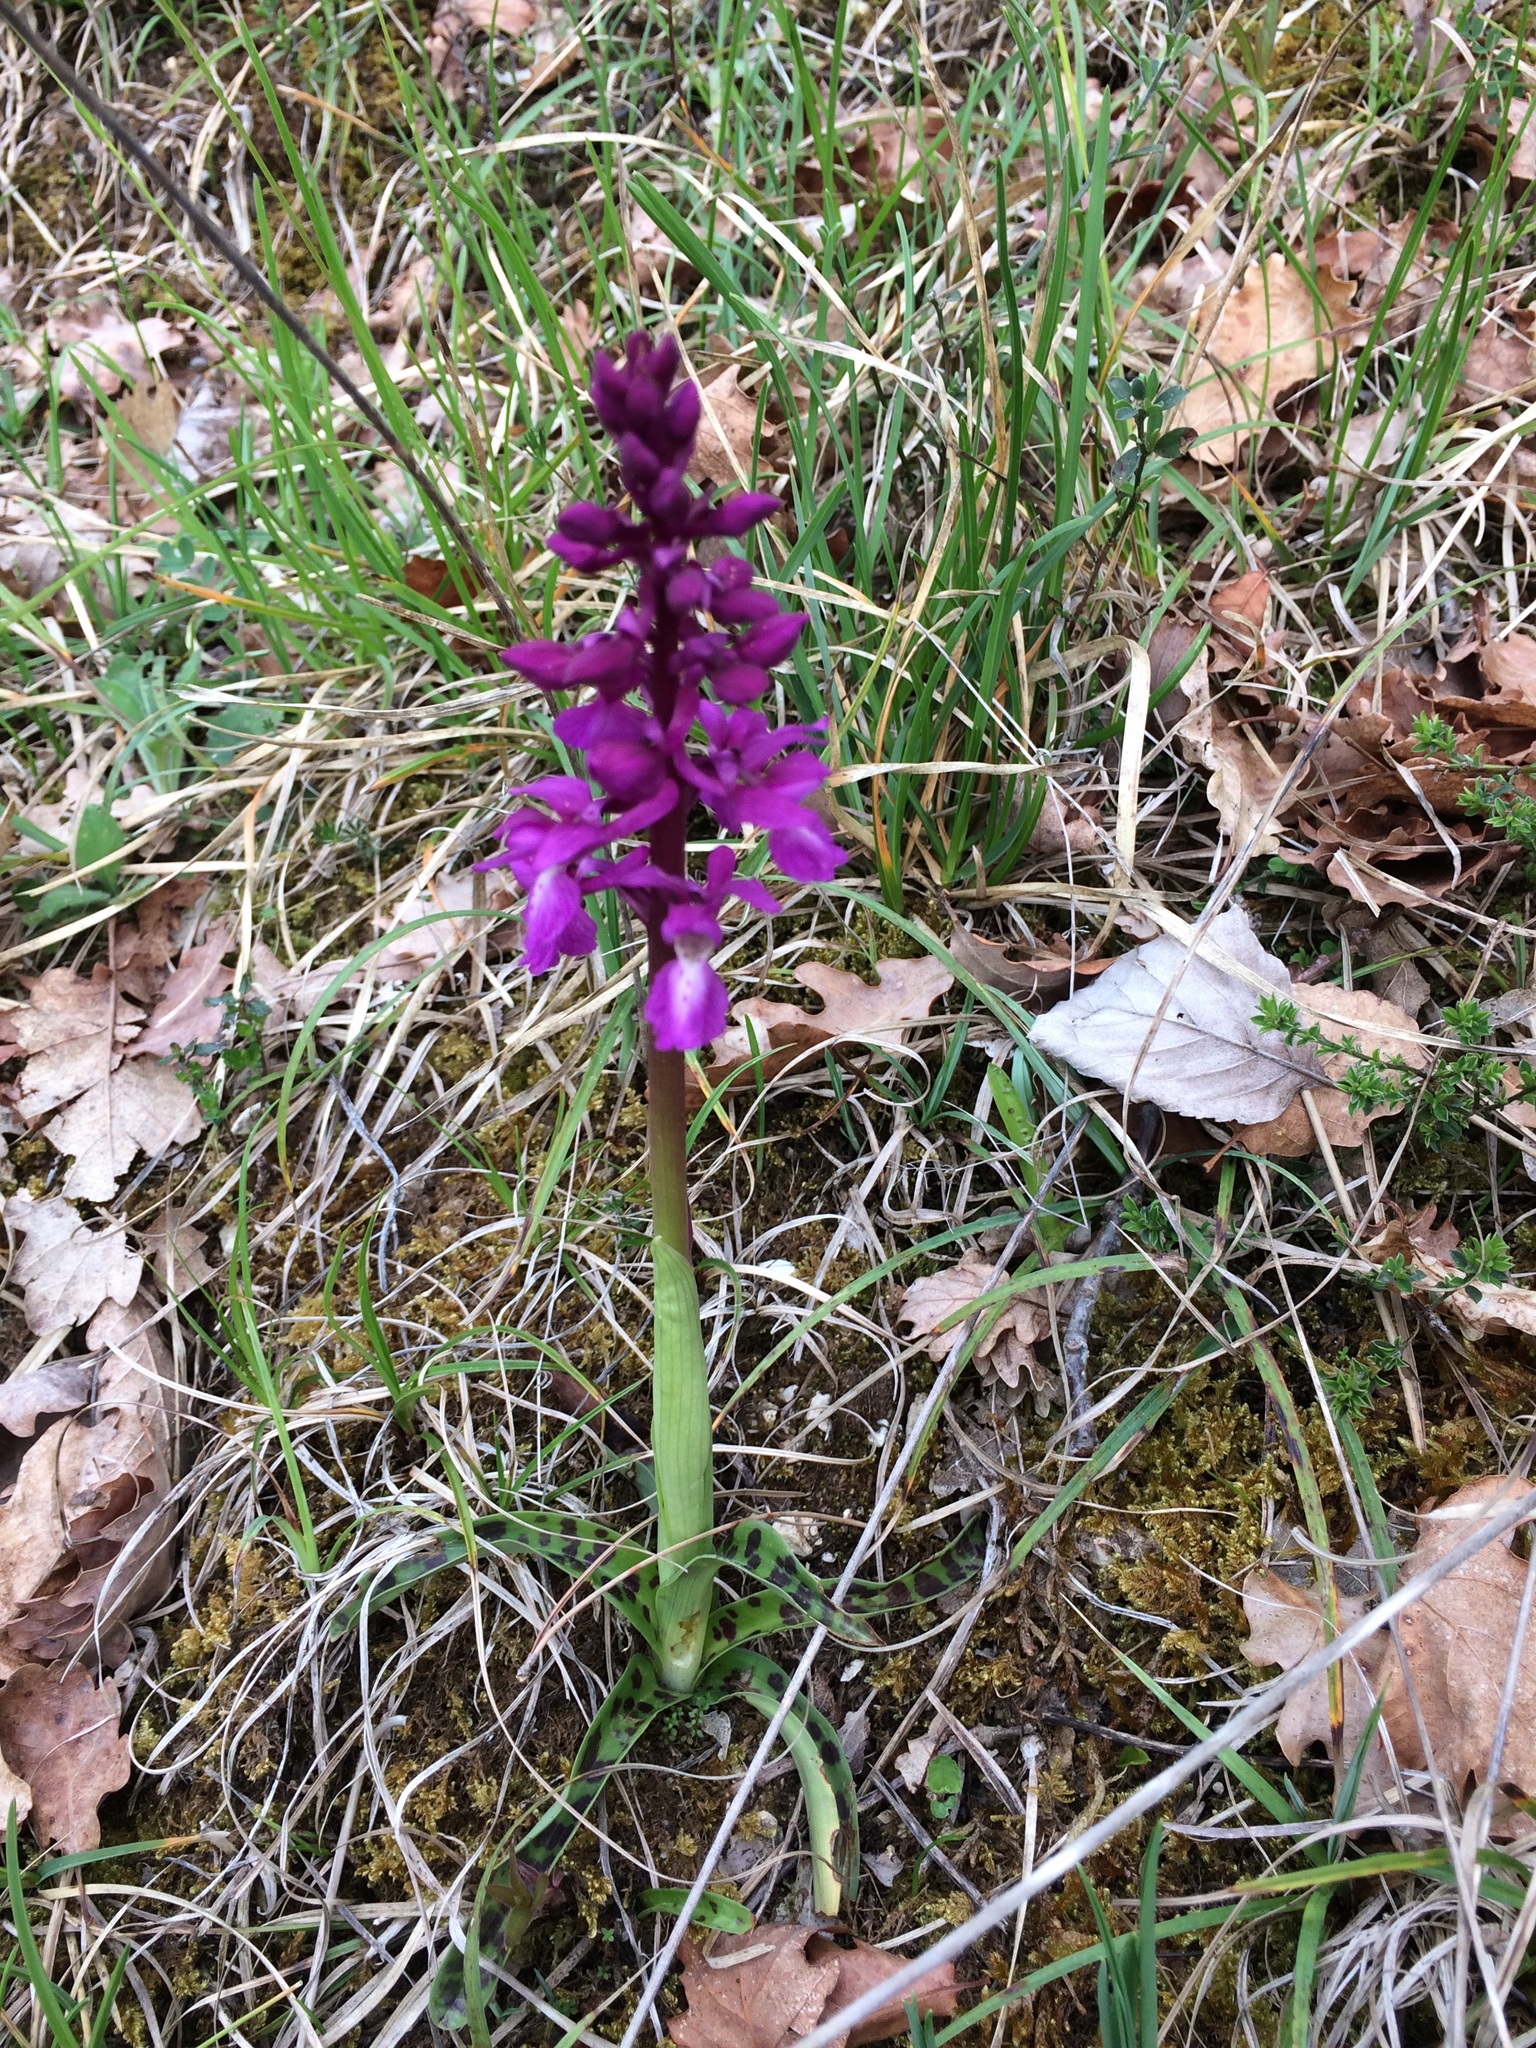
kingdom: Plantae
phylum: Tracheophyta
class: Liliopsida
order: Asparagales
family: Orchidaceae
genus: Orchis
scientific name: Orchis mascula
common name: Early-purple orchid
